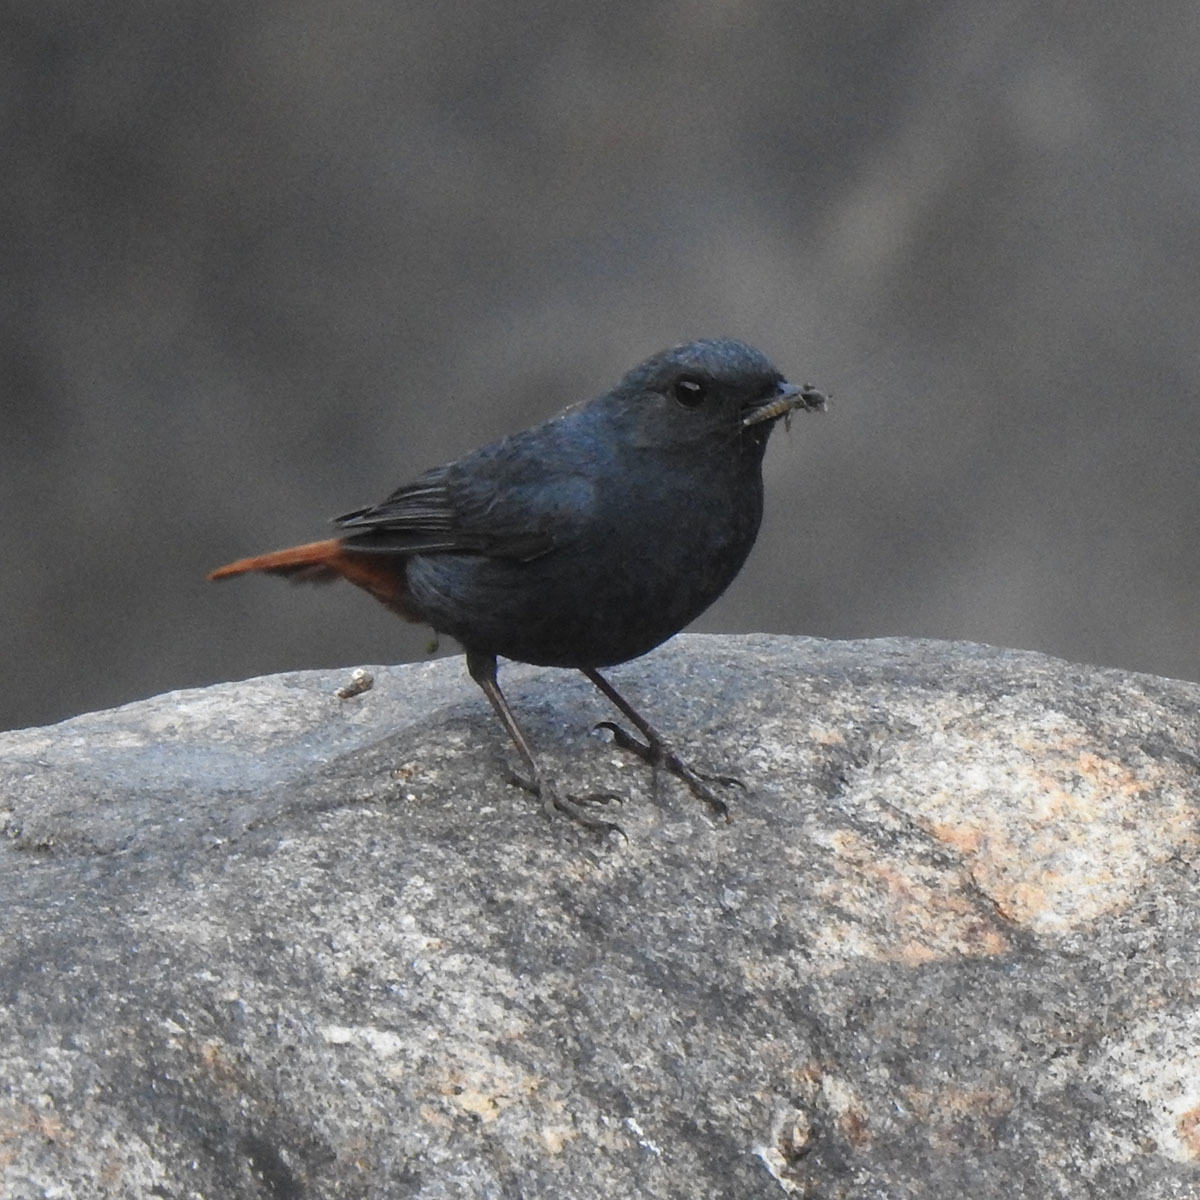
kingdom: Animalia
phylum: Chordata
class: Aves
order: Passeriformes
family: Muscicapidae
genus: Phoenicurus
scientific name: Phoenicurus fuliginosus
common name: Plumbeous water redstart
